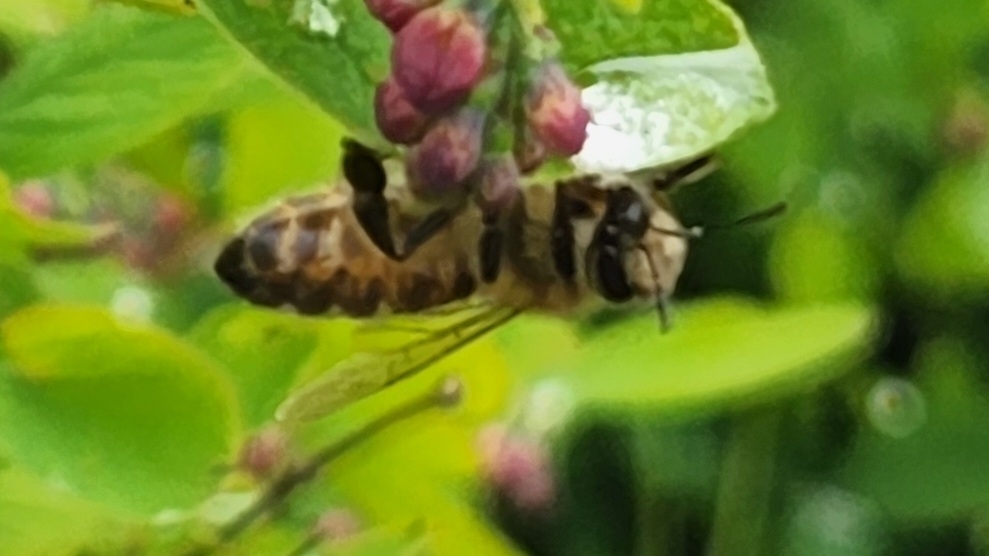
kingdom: Animalia
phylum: Arthropoda
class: Insecta
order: Hymenoptera
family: Apidae
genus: Apis
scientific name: Apis mellifera
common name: Honey bee
